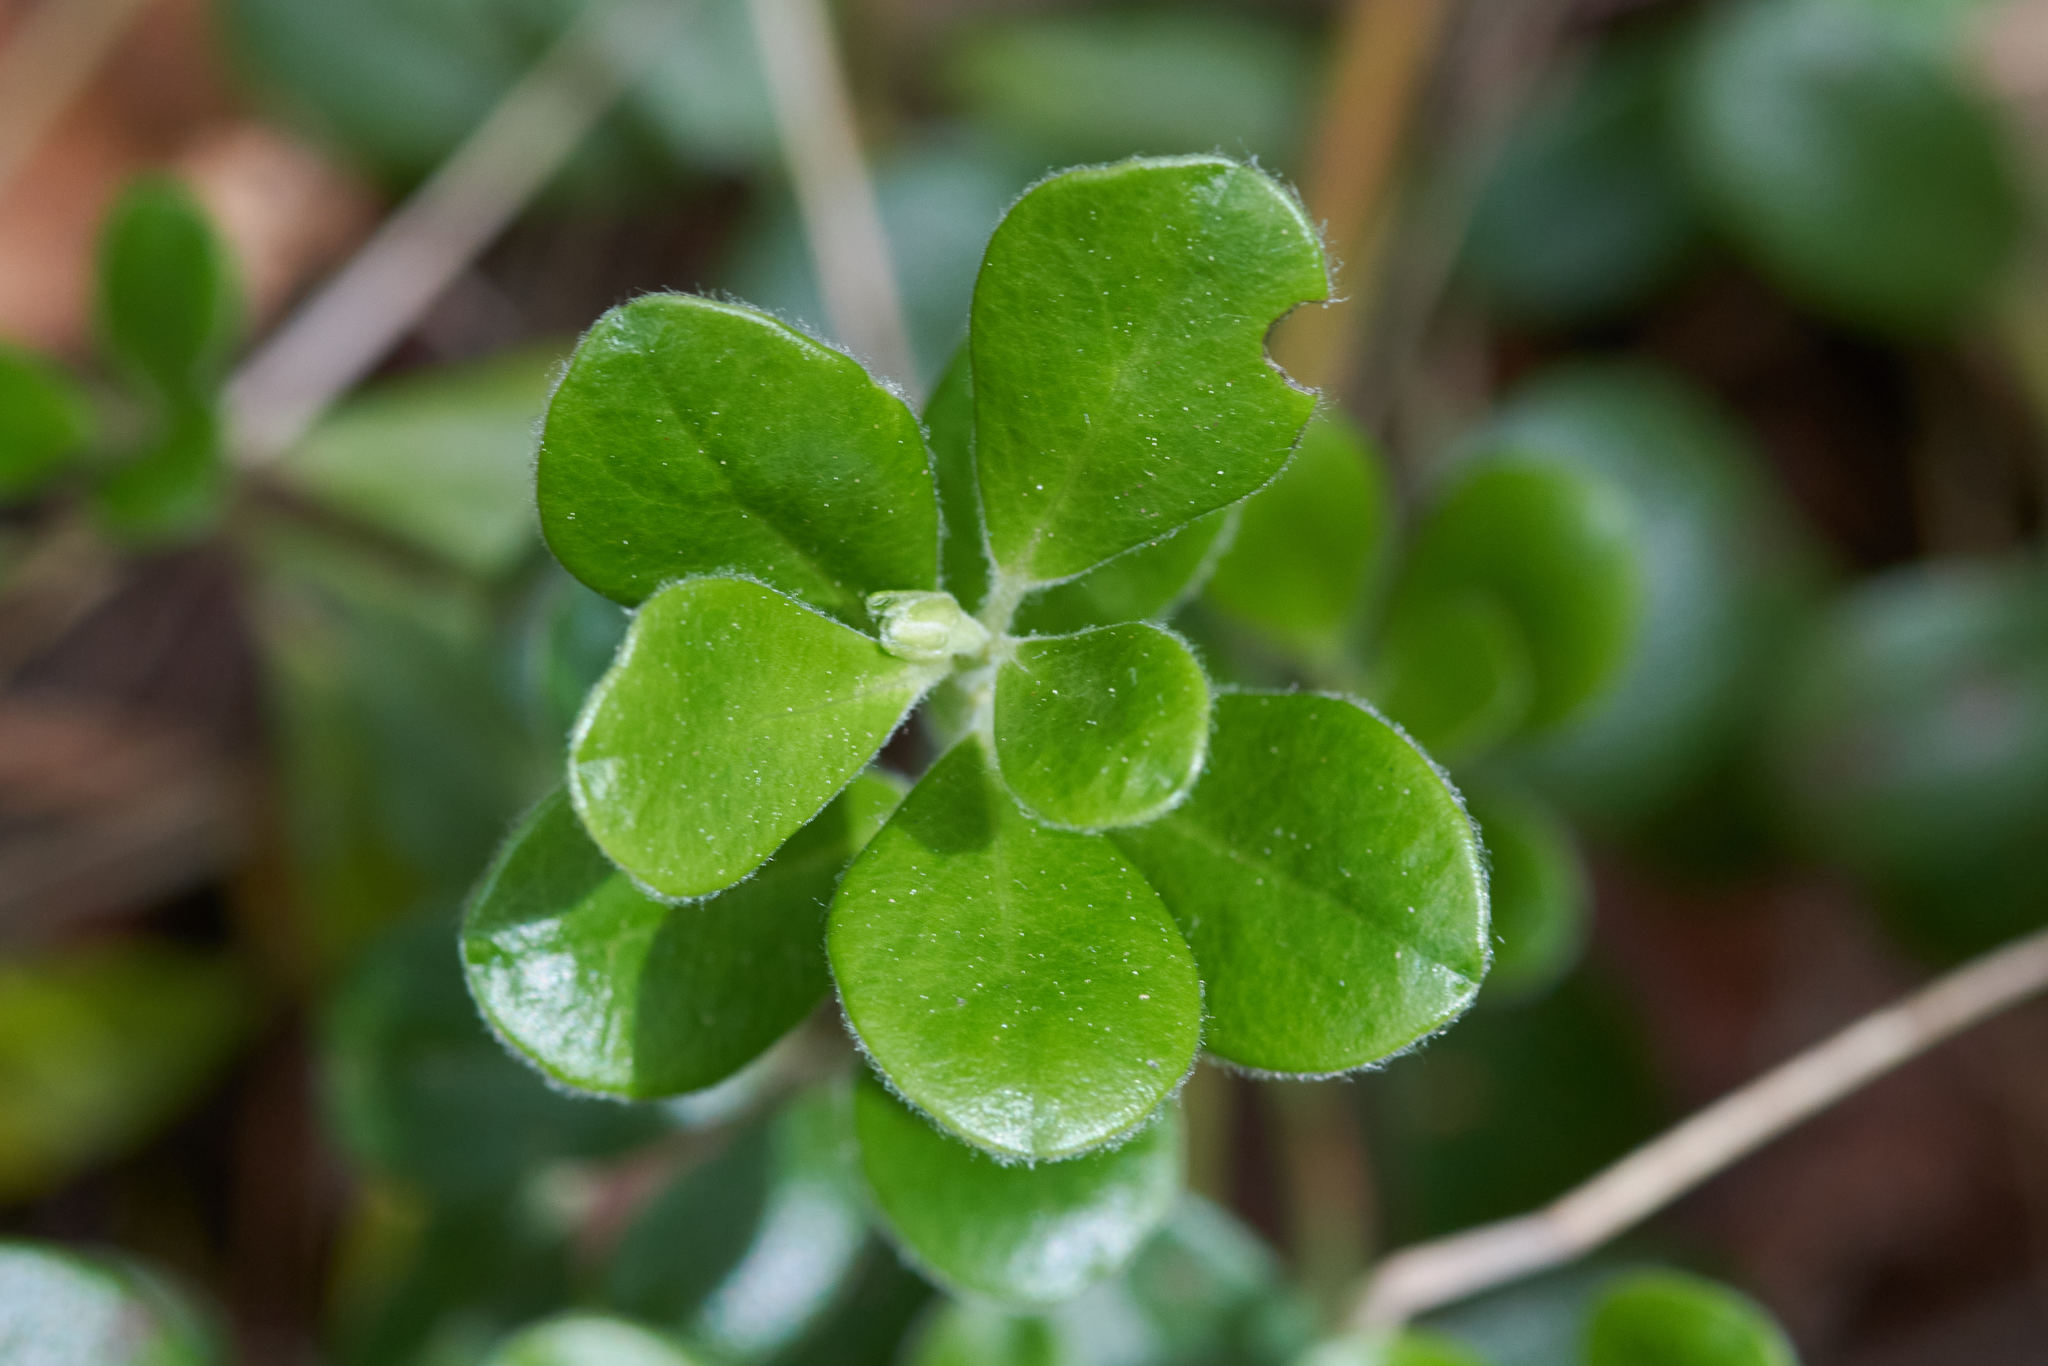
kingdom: Plantae
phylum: Tracheophyta
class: Magnoliopsida
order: Ericales
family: Ericaceae
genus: Arctostaphylos
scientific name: Arctostaphylos uva-ursi
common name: Bearberry
